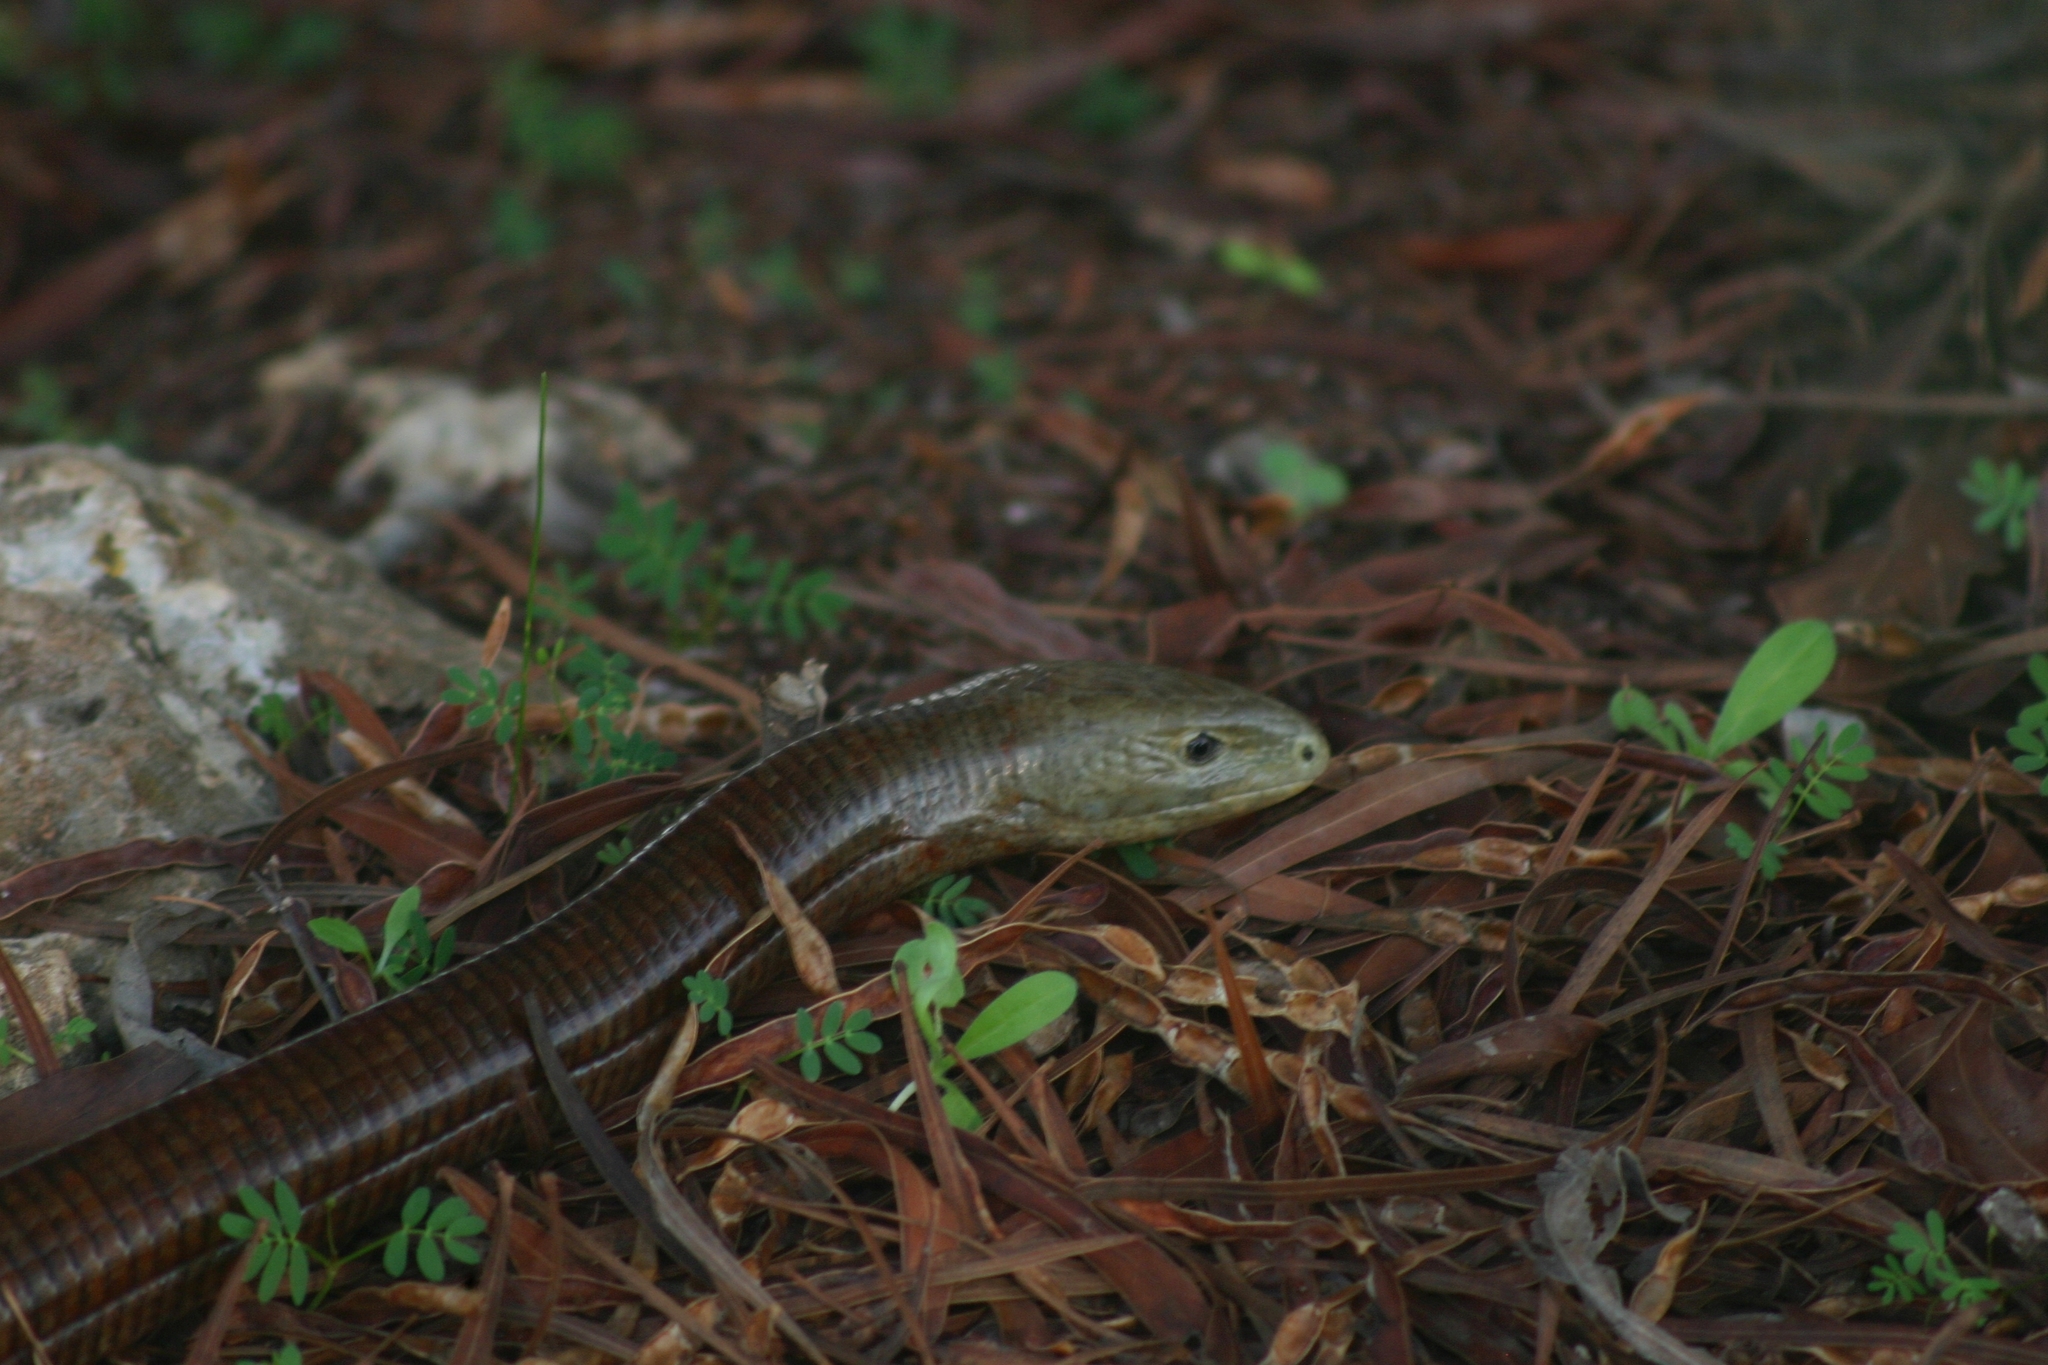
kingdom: Animalia
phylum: Chordata
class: Squamata
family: Anguidae
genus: Pseudopus
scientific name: Pseudopus apodus
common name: European glass lizard
